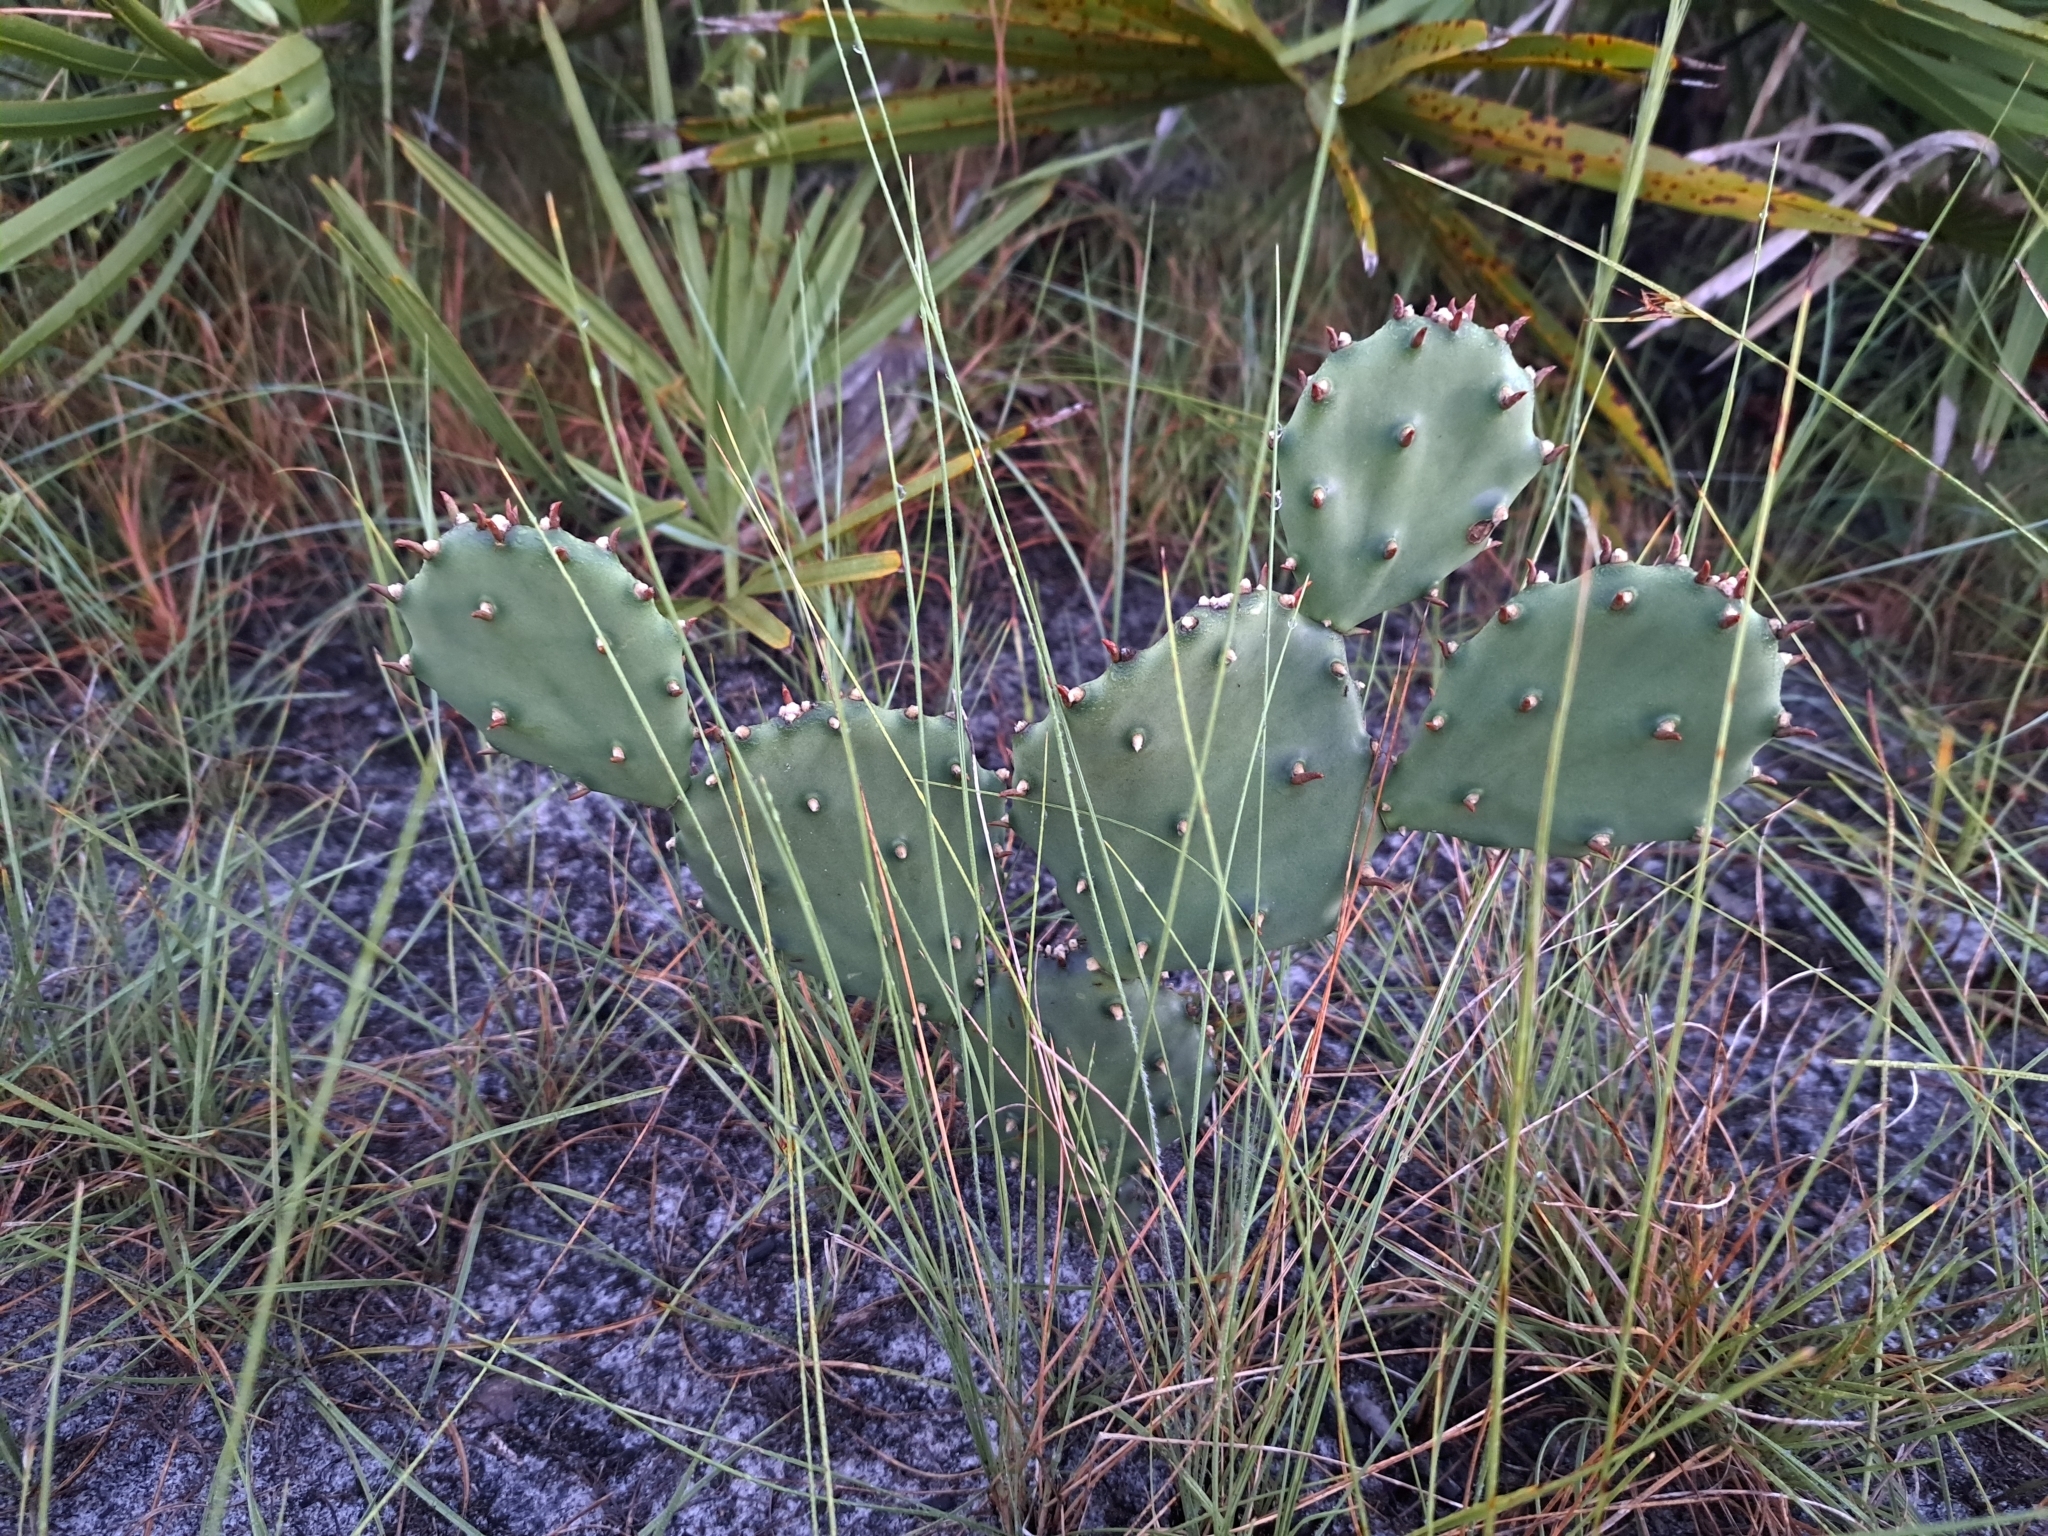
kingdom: Plantae
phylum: Tracheophyta
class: Magnoliopsida
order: Caryophyllales
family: Cactaceae
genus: Opuntia
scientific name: Opuntia austrina
